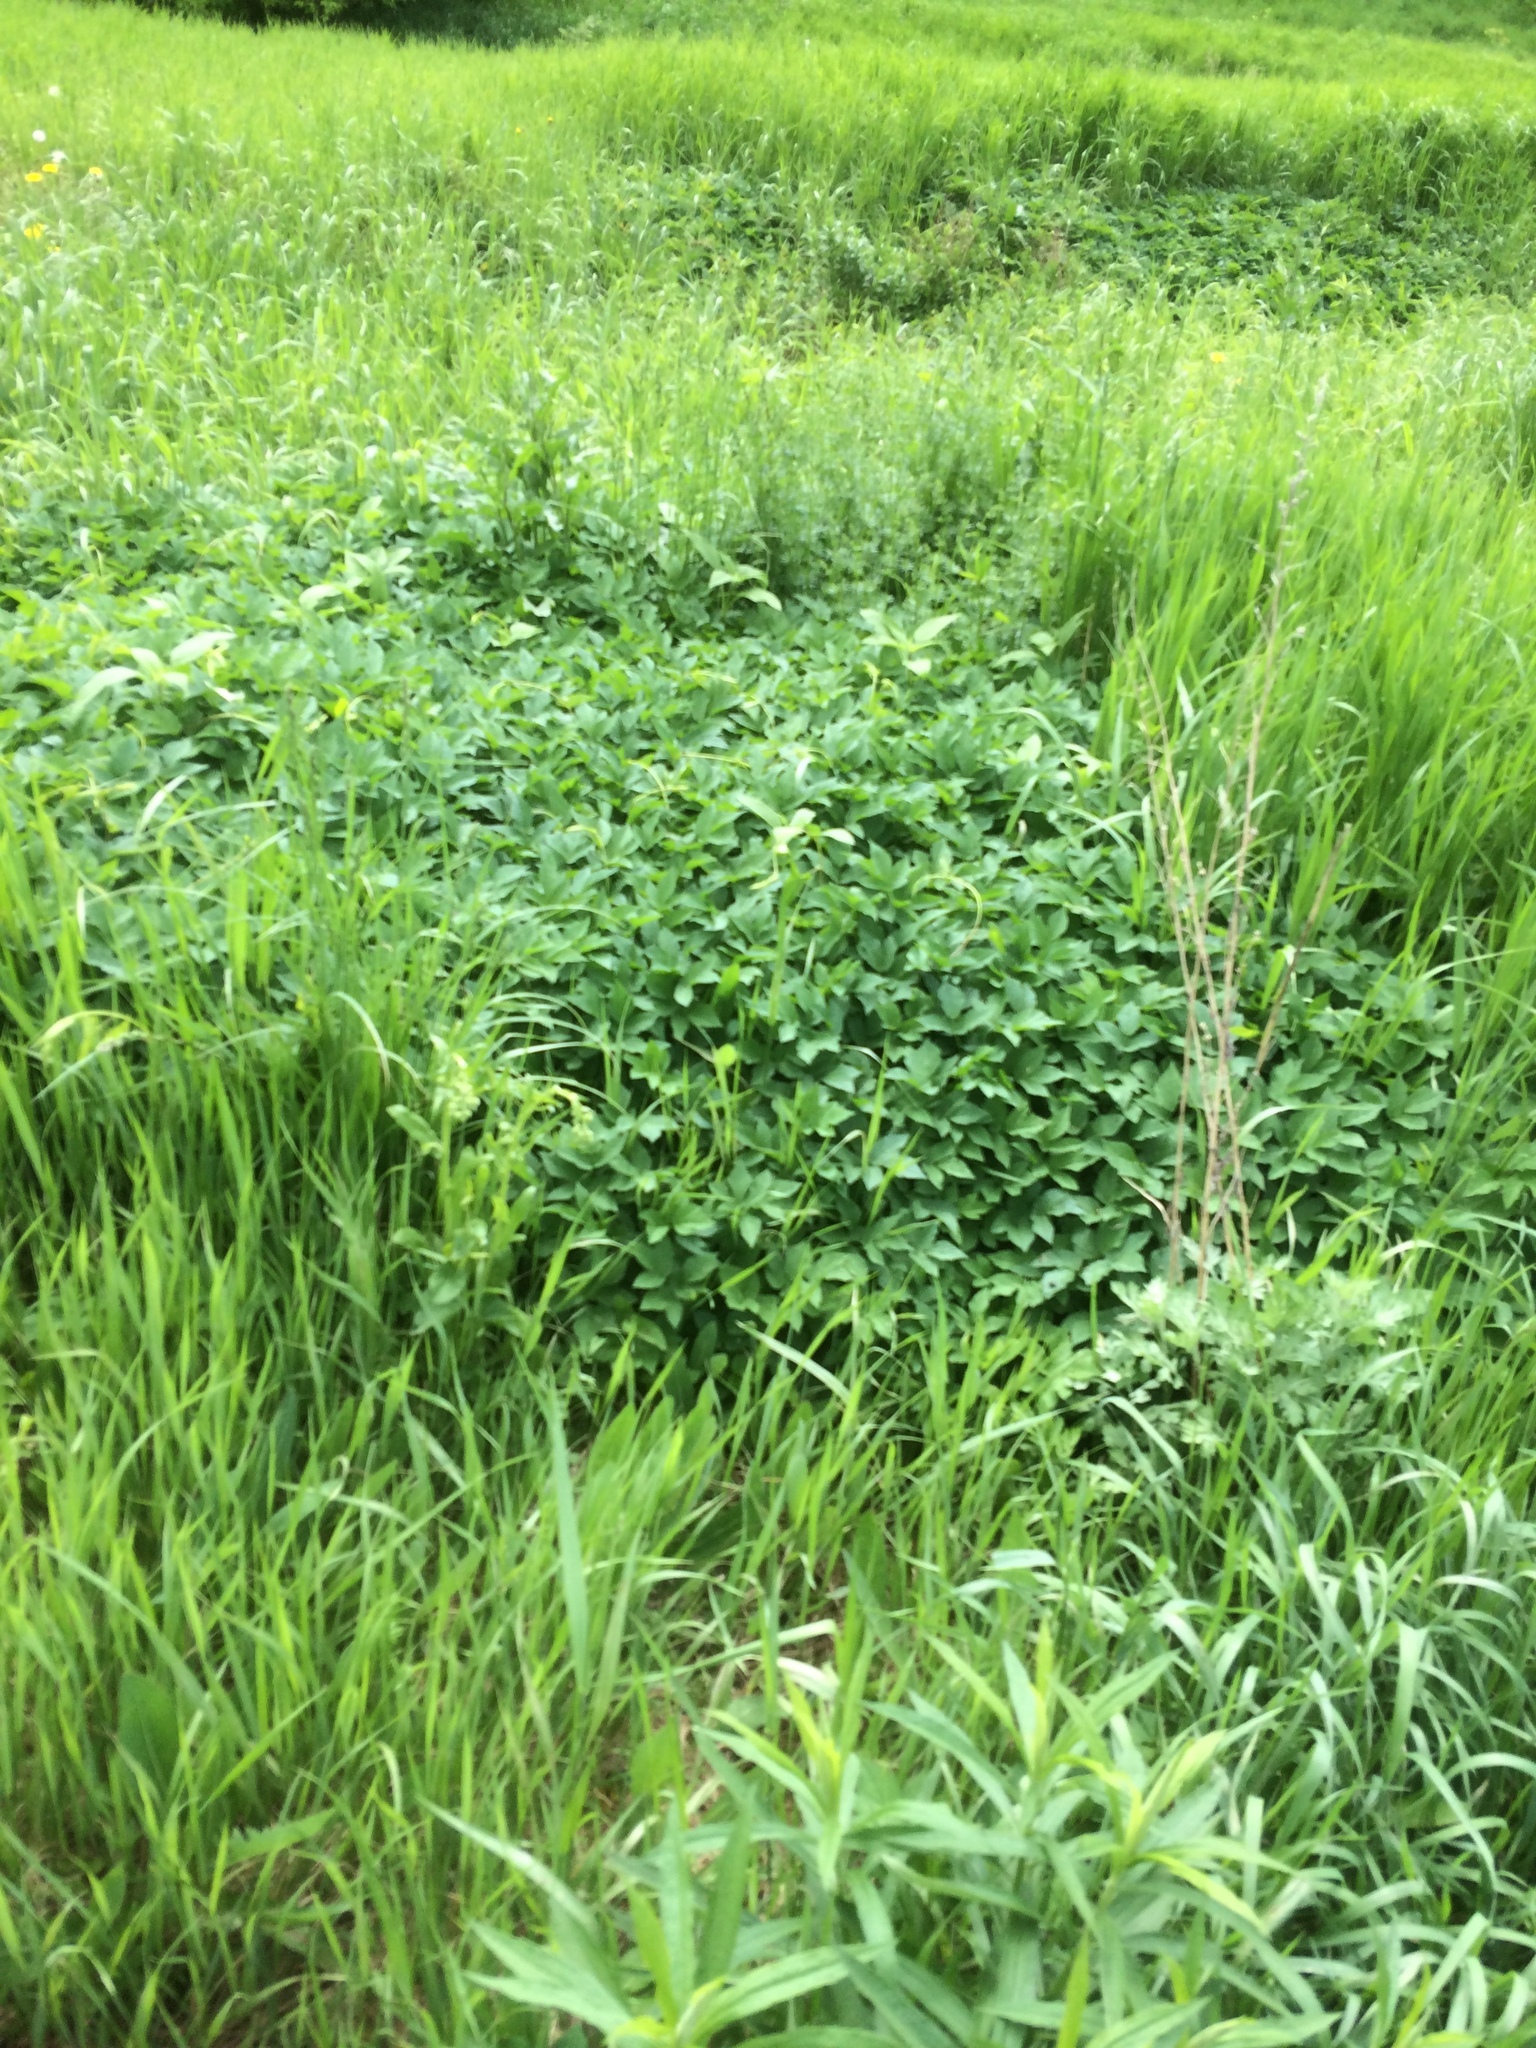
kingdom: Plantae
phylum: Tracheophyta
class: Magnoliopsida
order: Apiales
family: Apiaceae
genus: Aegopodium
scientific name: Aegopodium podagraria
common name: Ground-elder
